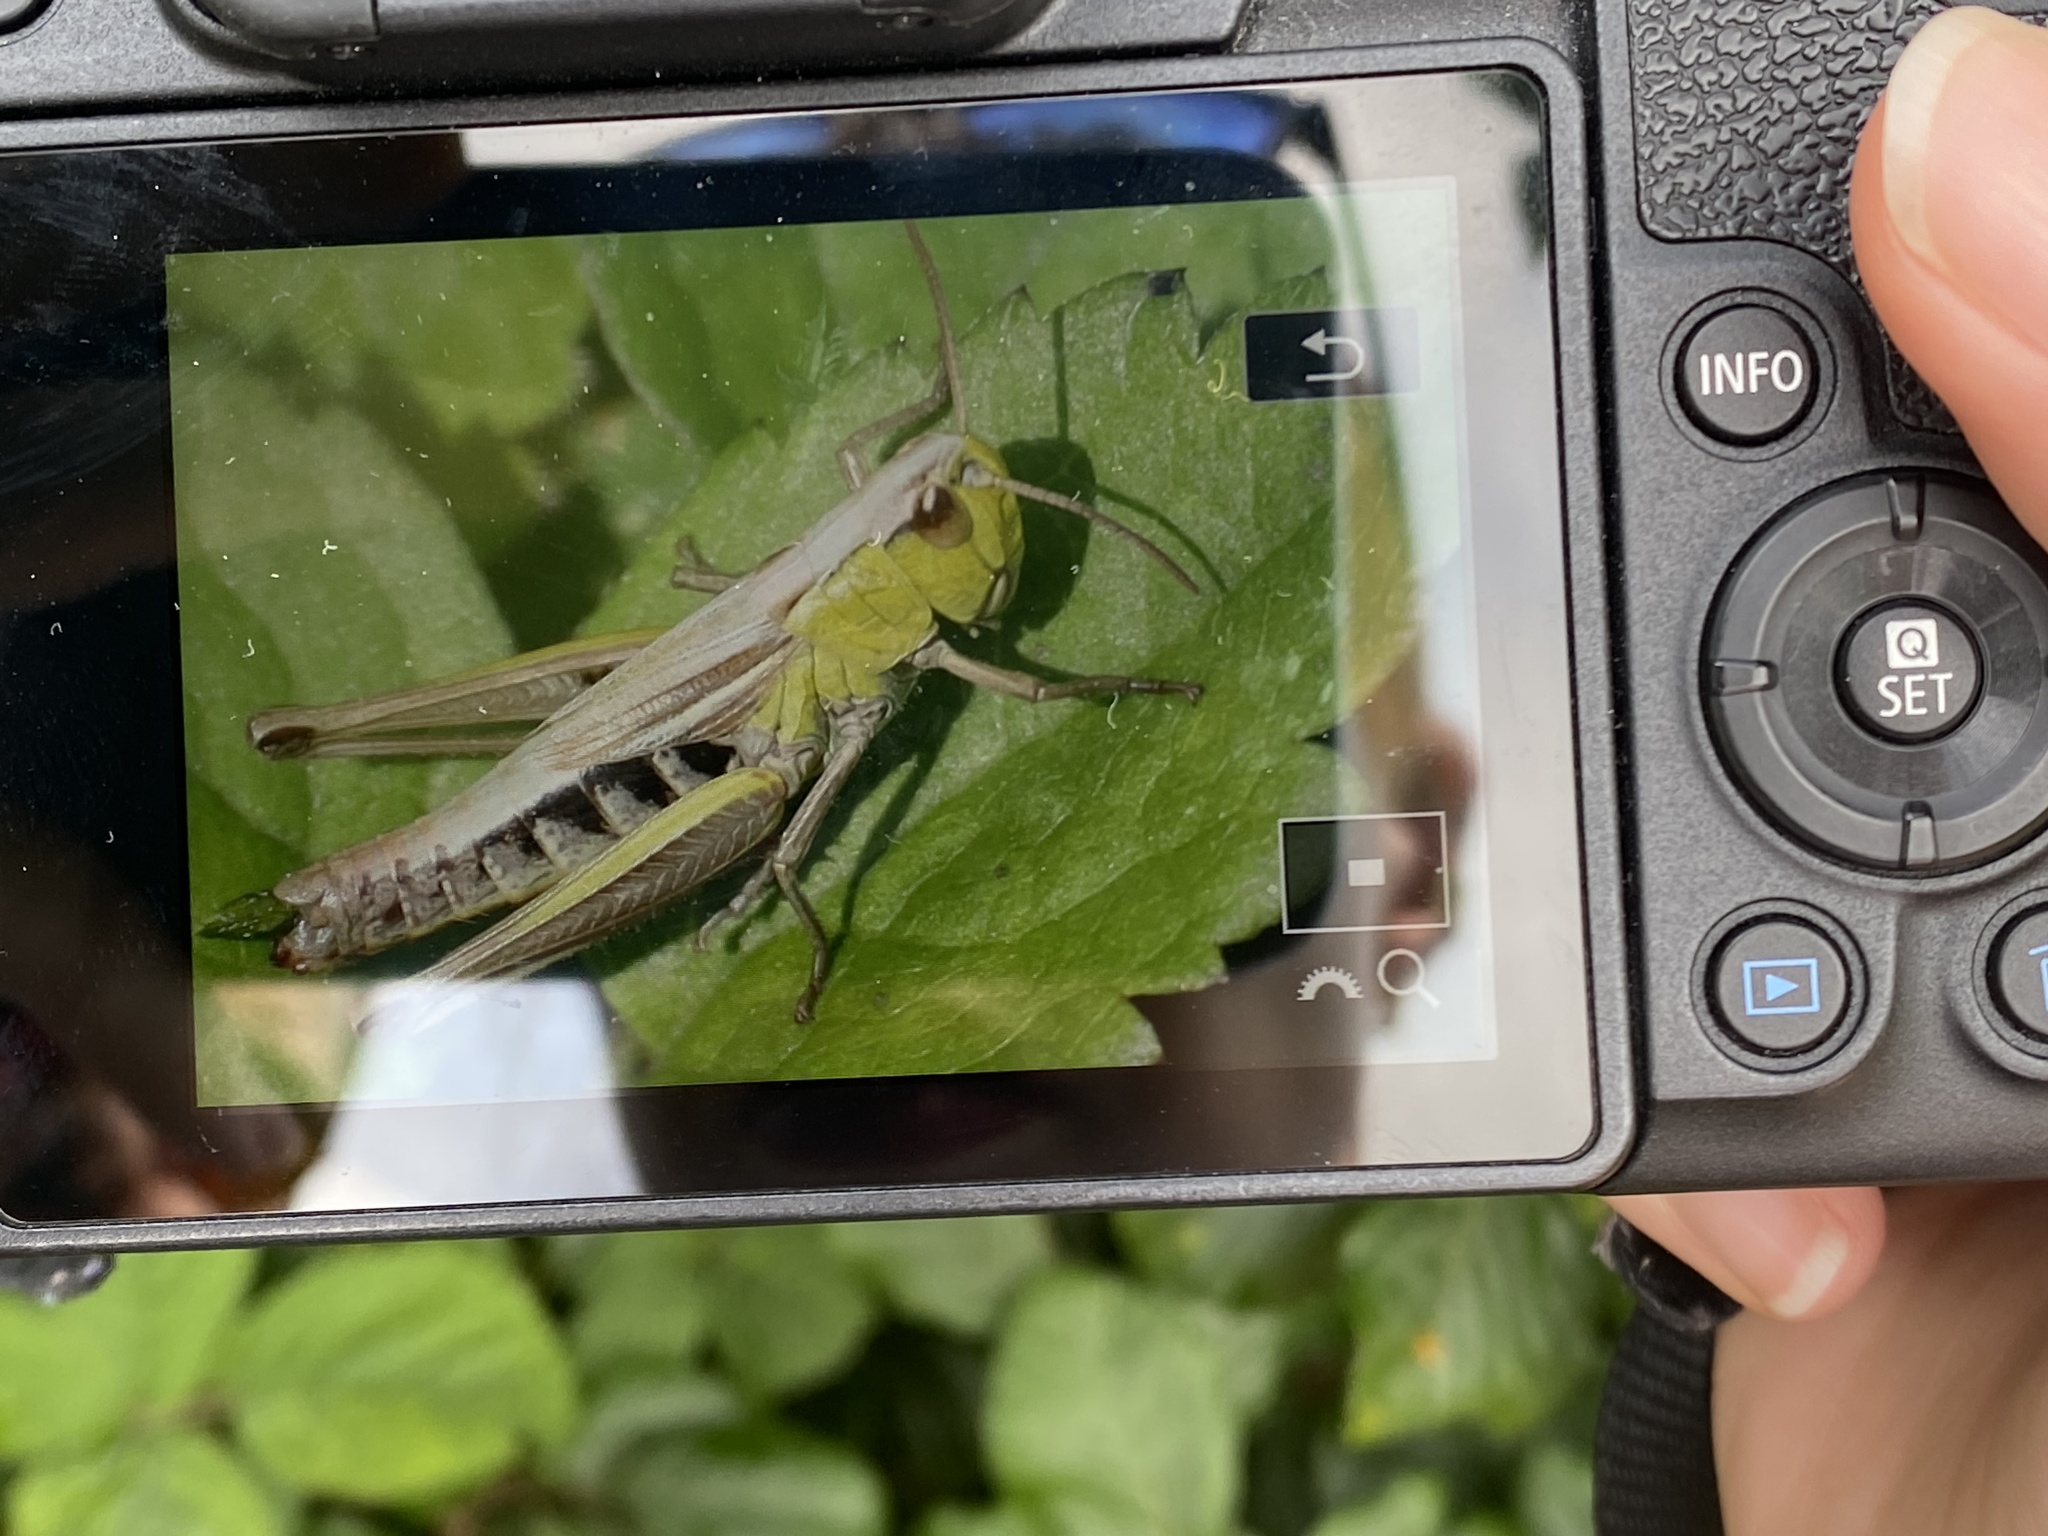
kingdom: Animalia
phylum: Arthropoda
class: Insecta
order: Orthoptera
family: Acrididae
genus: Pseudochorthippus
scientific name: Pseudochorthippus parallelus
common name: Meadow grasshopper
